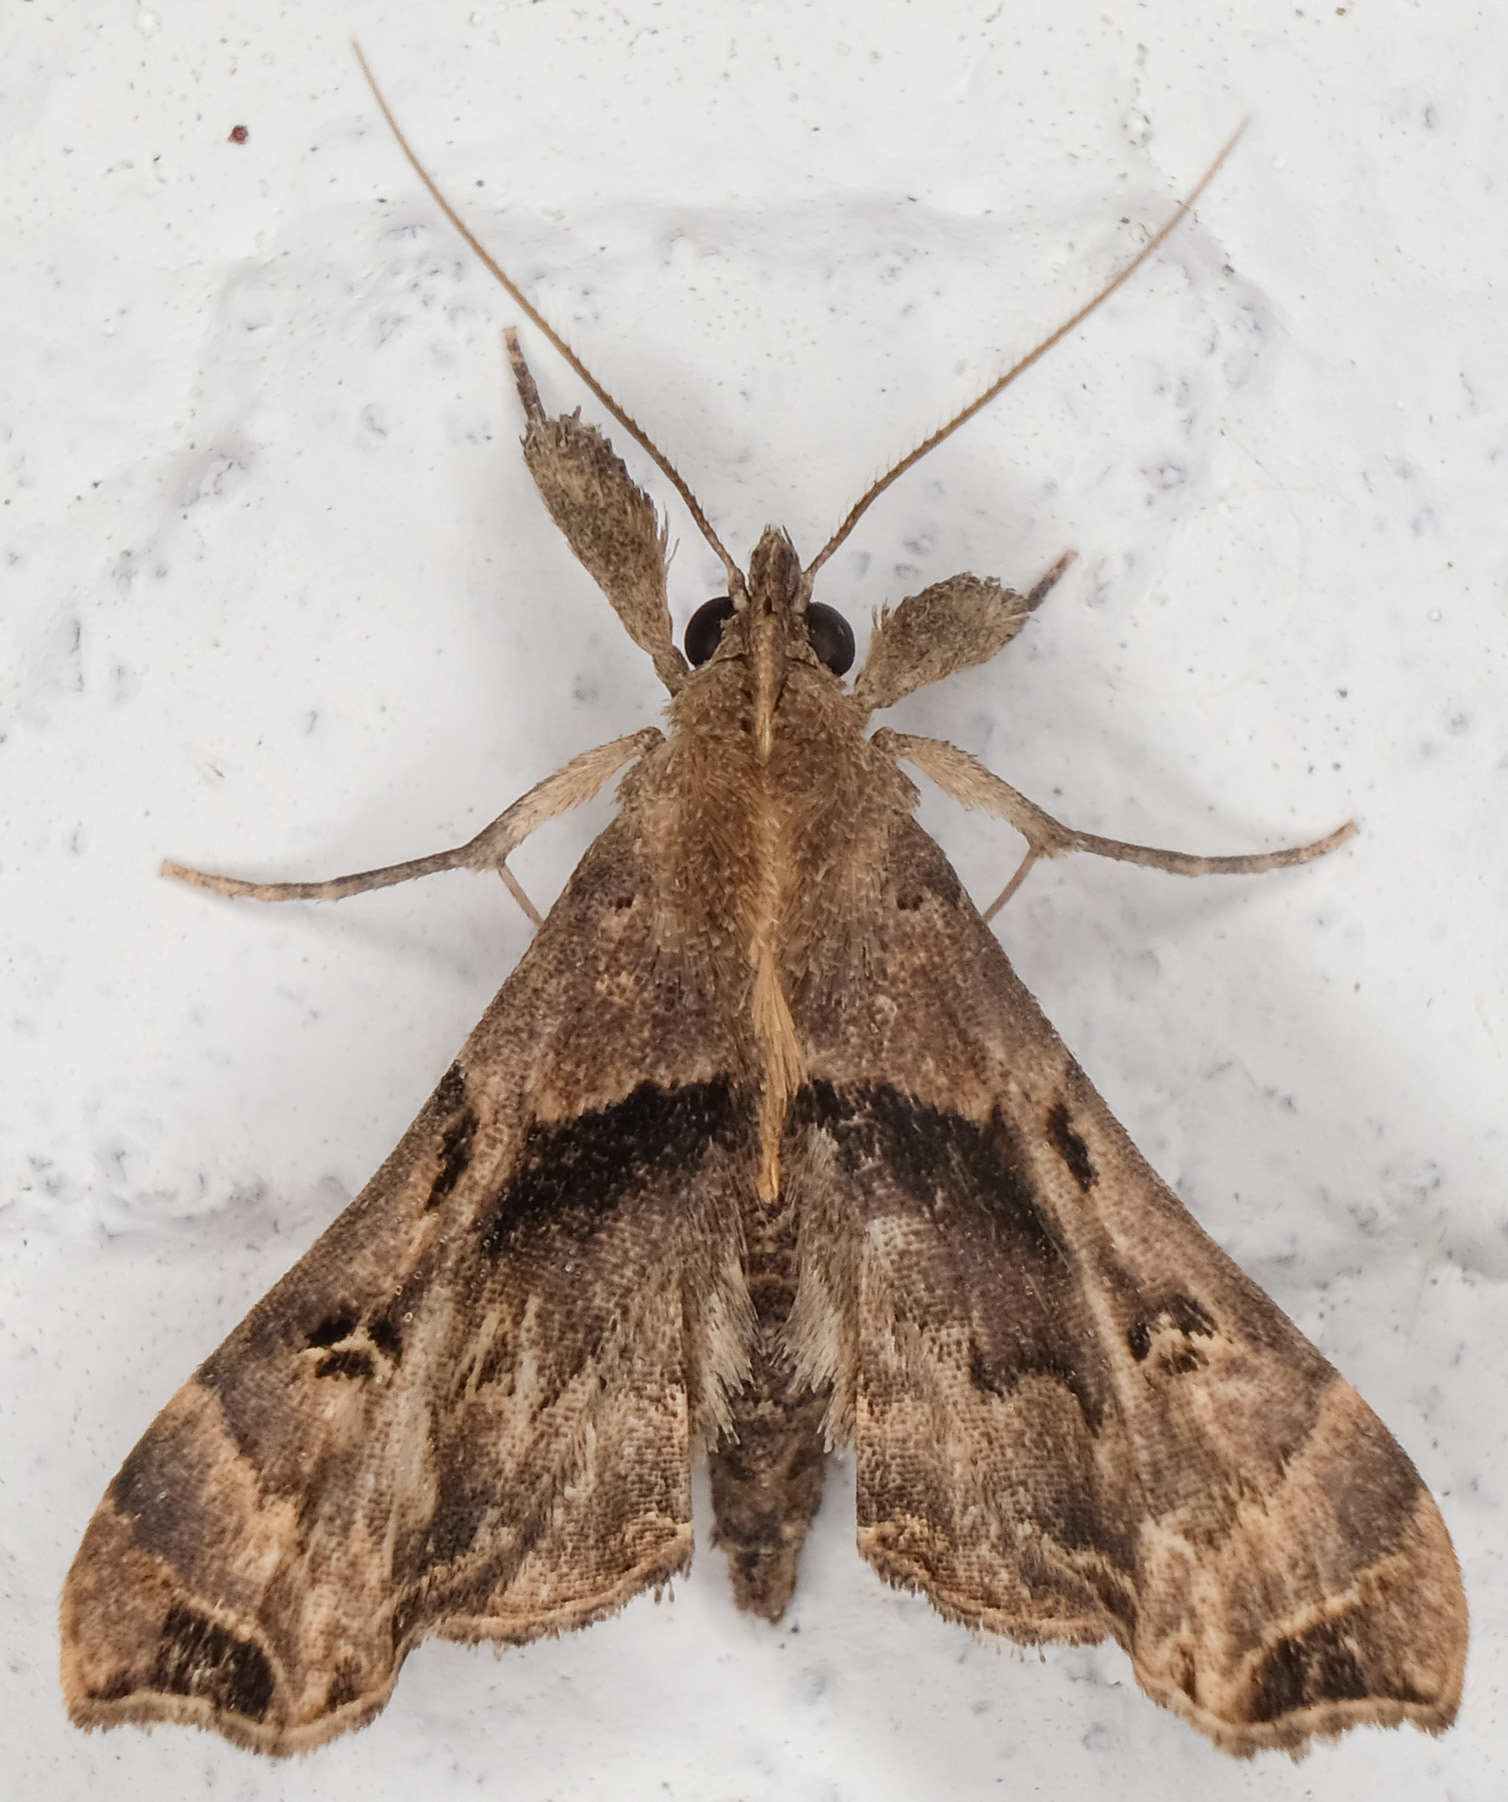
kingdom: Animalia
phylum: Arthropoda
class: Insecta
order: Lepidoptera
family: Erebidae
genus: Palthis
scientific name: Palthis asopialis
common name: Faint-spotted palthis moth
